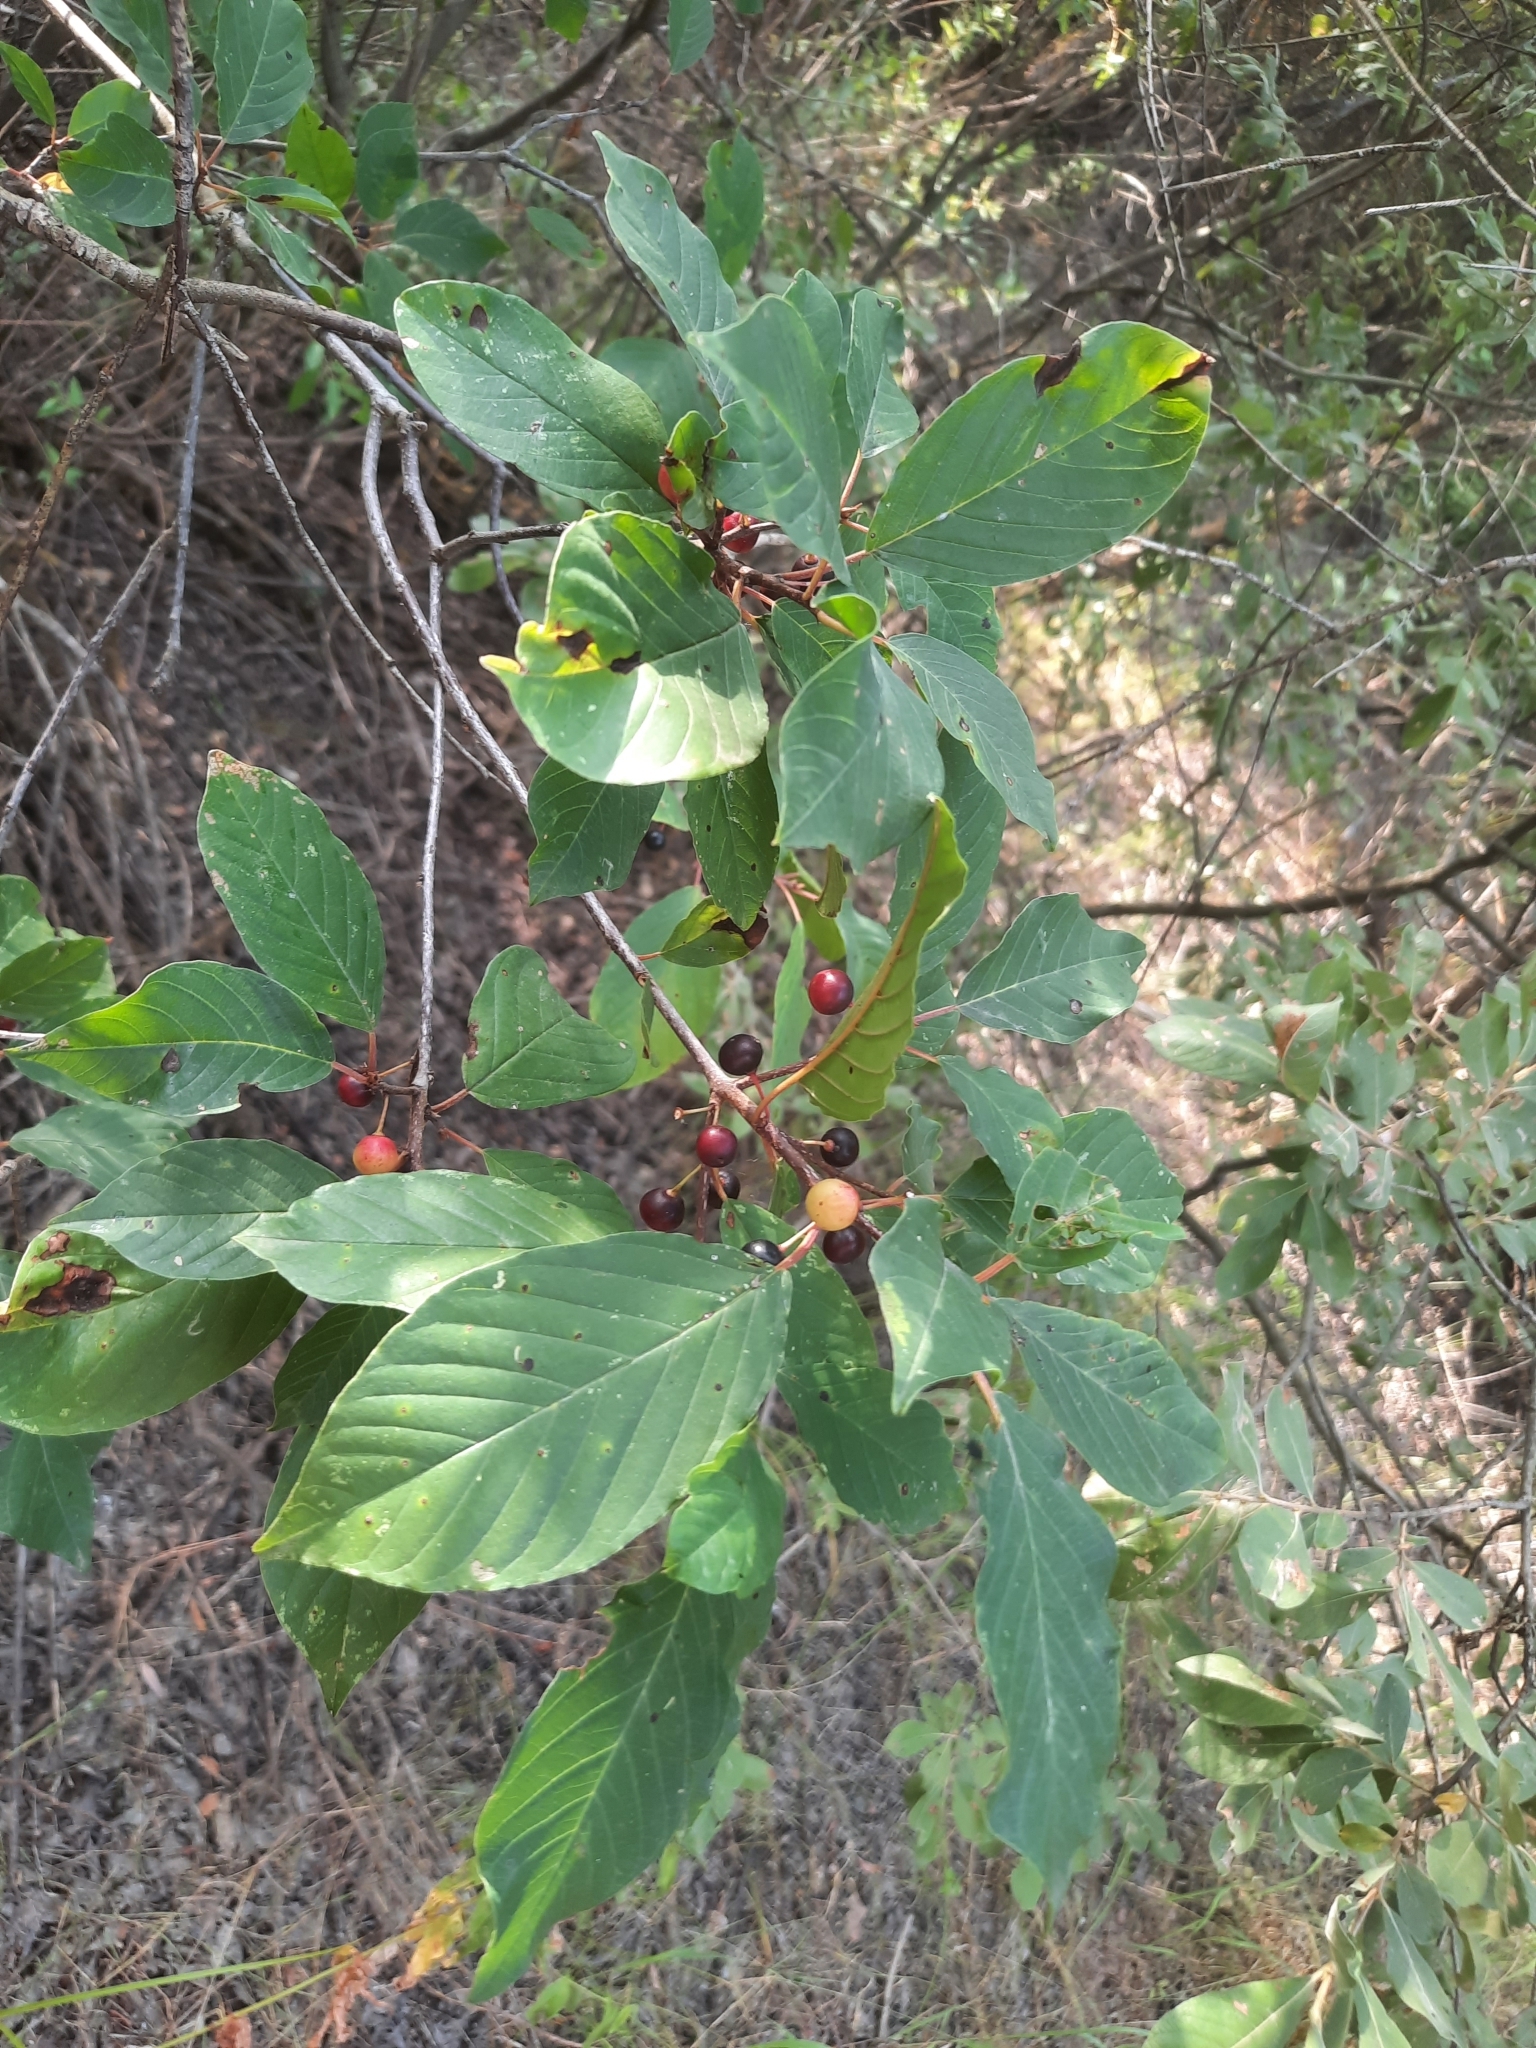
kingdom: Plantae
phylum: Tracheophyta
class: Magnoliopsida
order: Rosales
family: Rhamnaceae
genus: Frangula
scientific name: Frangula alnus
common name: Alder buckthorn
